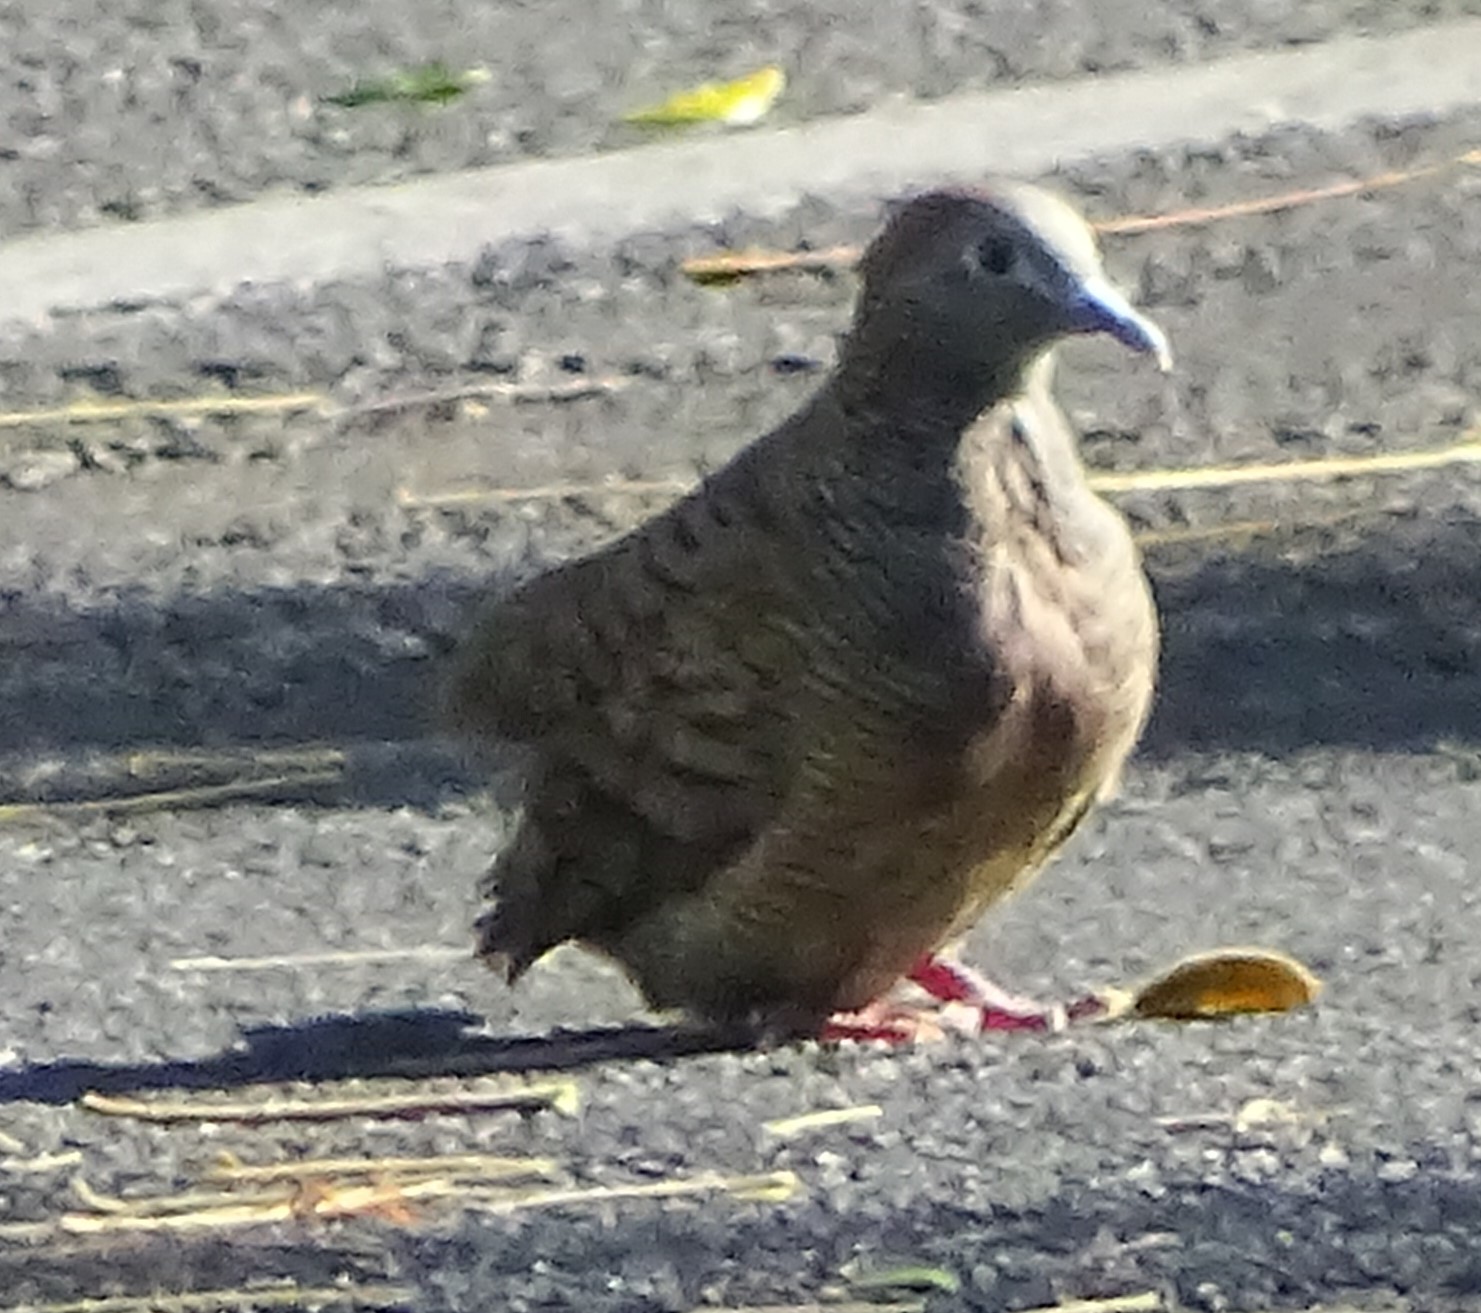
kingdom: Animalia
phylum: Chordata
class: Aves
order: Columbiformes
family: Columbidae
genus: Geopelia
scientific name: Geopelia striata
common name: Zebra dove
